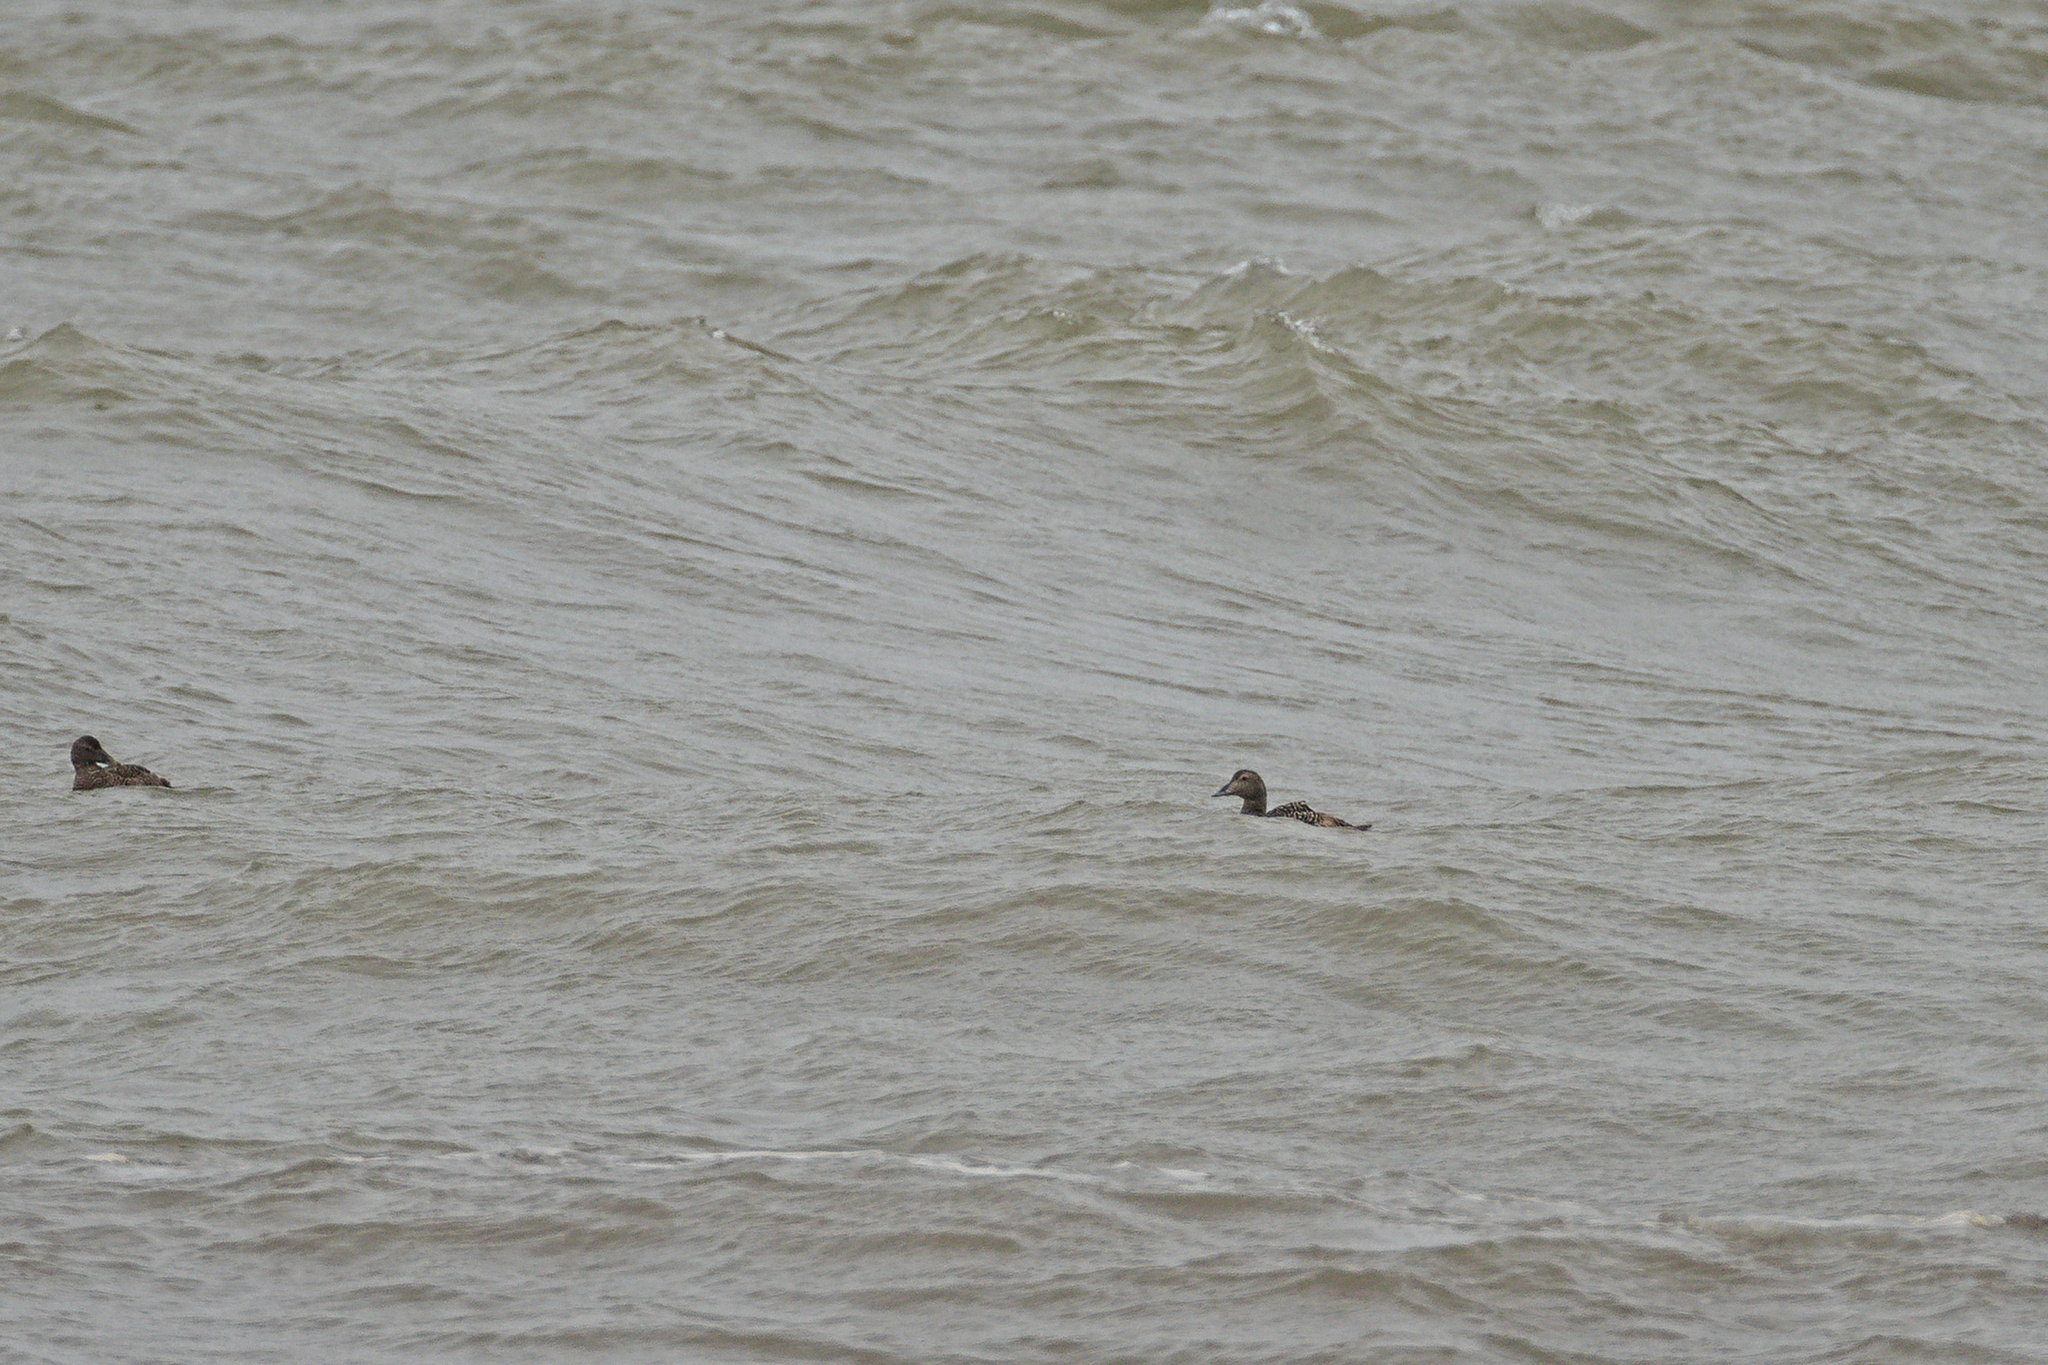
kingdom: Animalia
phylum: Chordata
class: Aves
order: Anseriformes
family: Anatidae
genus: Somateria
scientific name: Somateria mollissima
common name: Common eider
